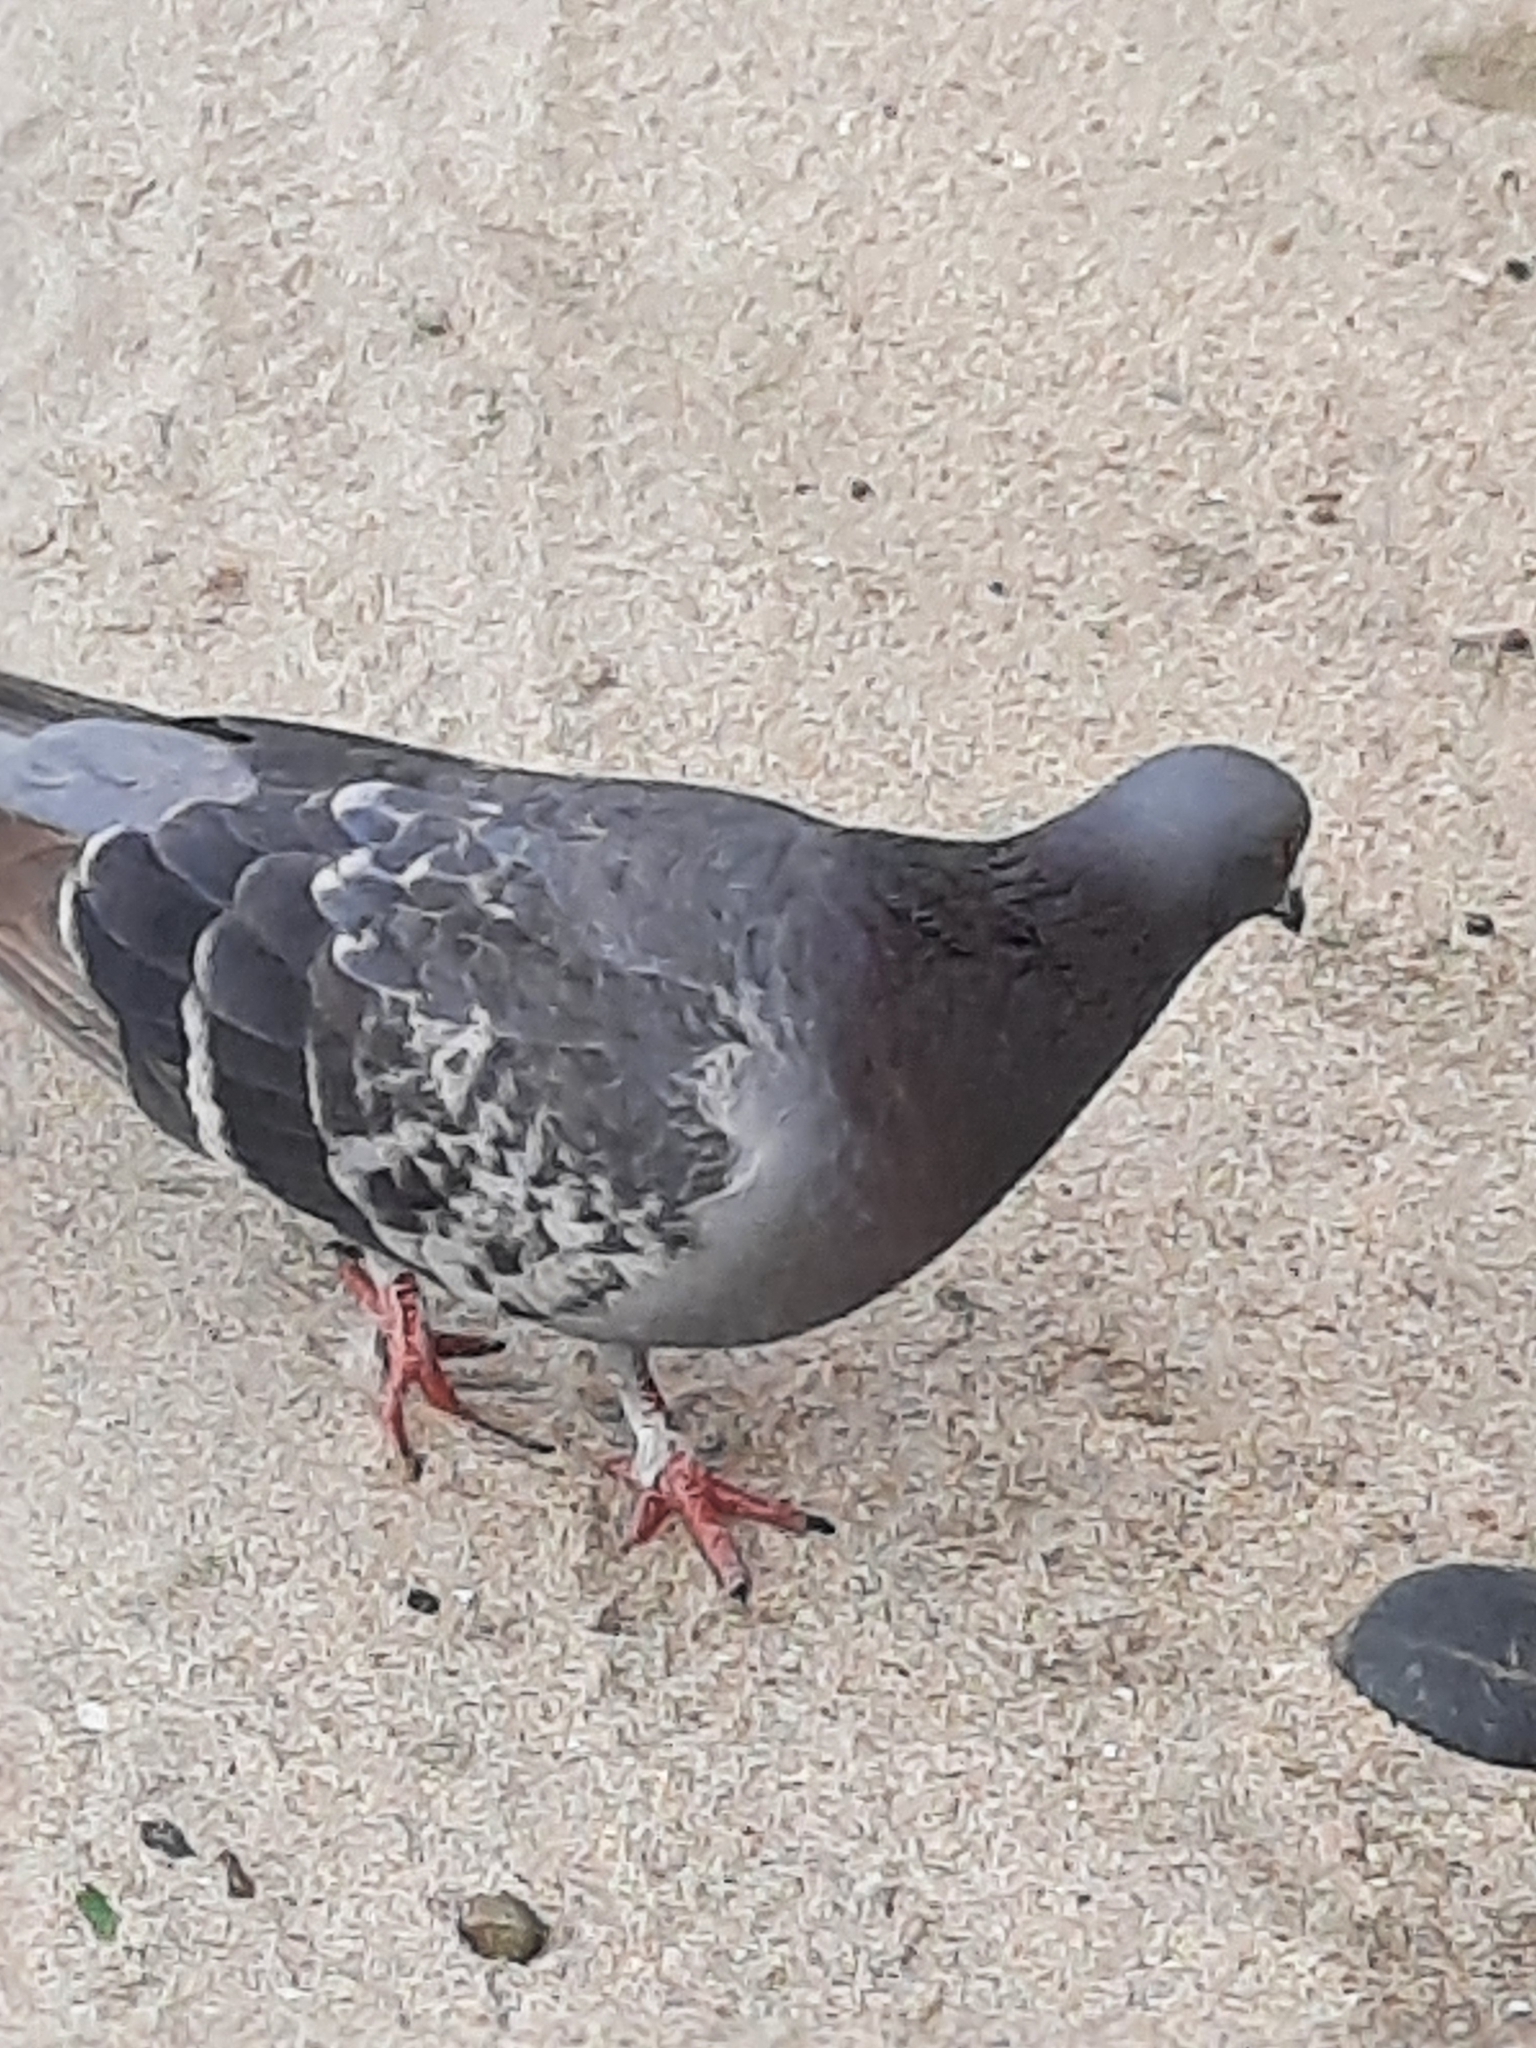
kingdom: Animalia
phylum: Chordata
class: Aves
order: Columbiformes
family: Columbidae
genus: Columba
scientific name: Columba livia
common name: Rock pigeon
